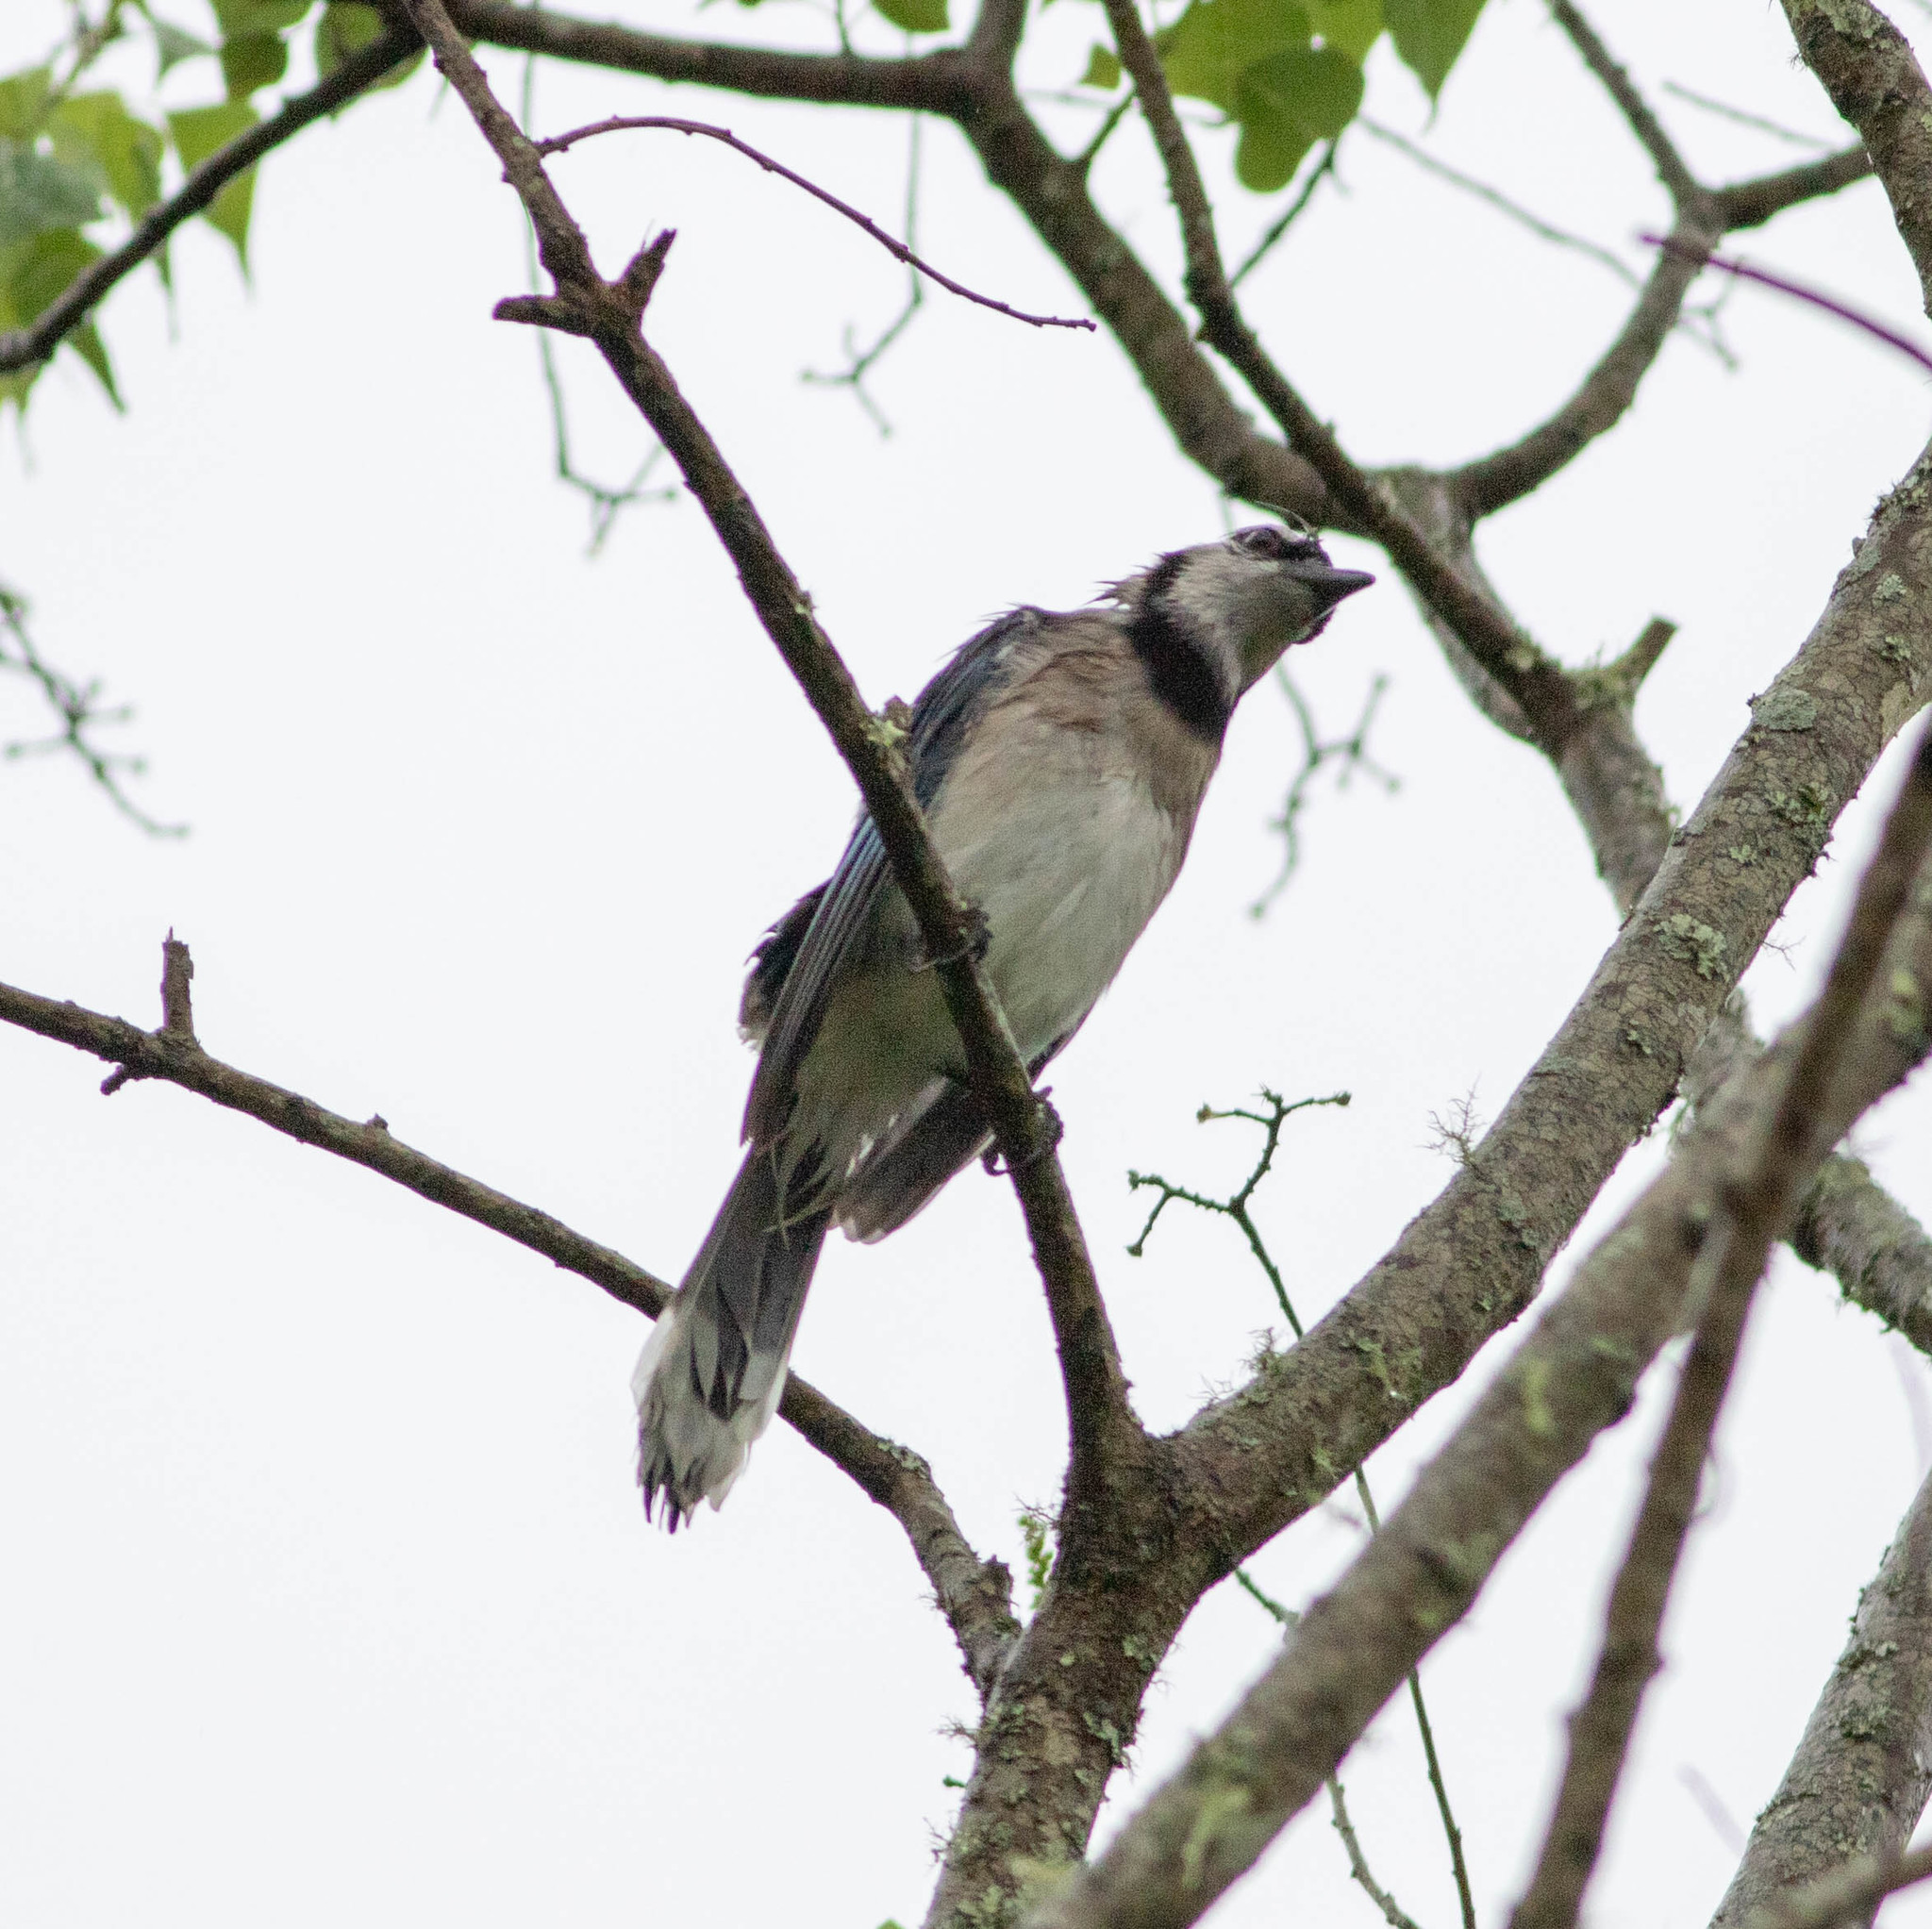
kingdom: Animalia
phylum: Chordata
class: Aves
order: Passeriformes
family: Corvidae
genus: Cyanocitta
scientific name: Cyanocitta cristata
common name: Blue jay
